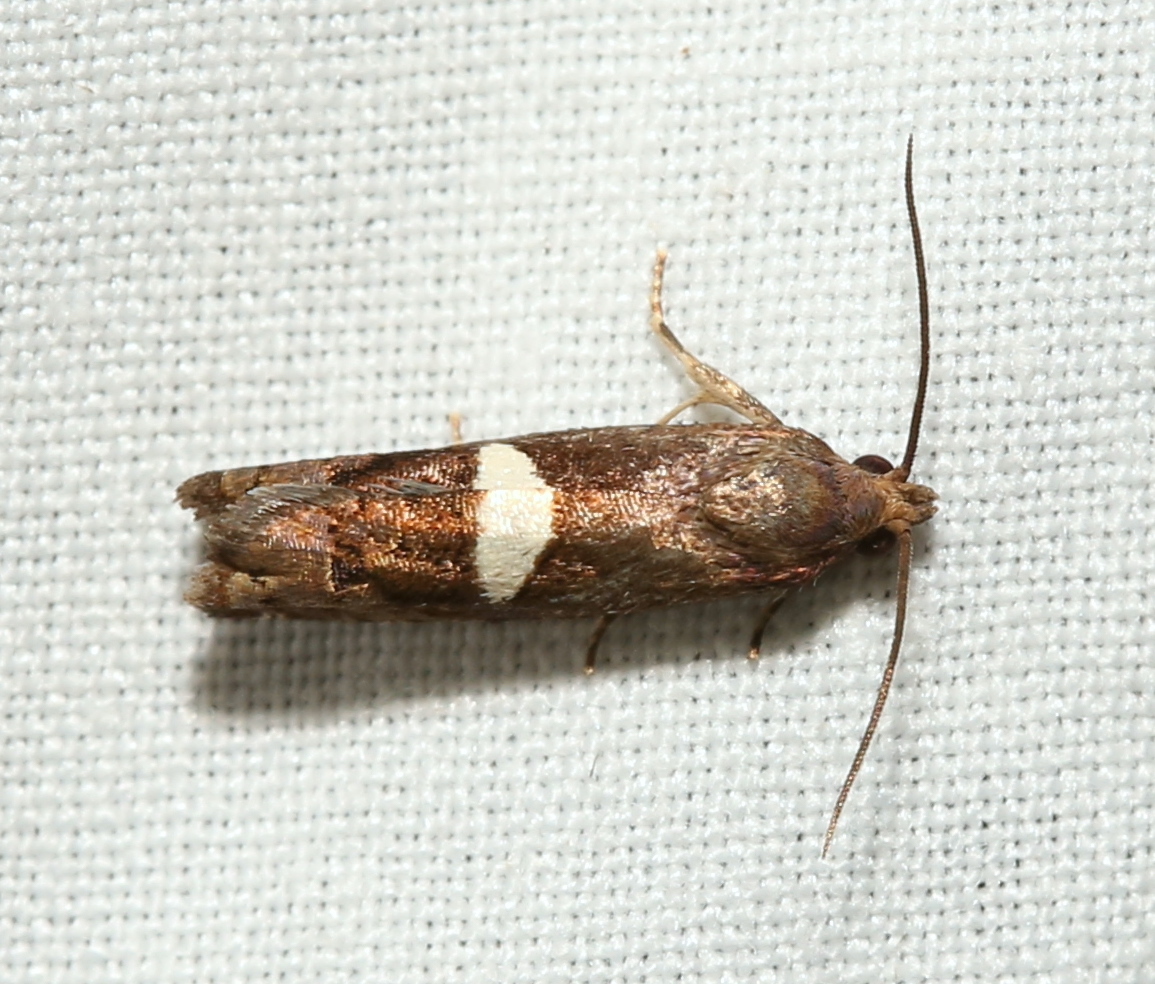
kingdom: Animalia
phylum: Arthropoda
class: Insecta
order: Lepidoptera
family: Tortricidae
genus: Epiblema
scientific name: Epiblema gibsoni
